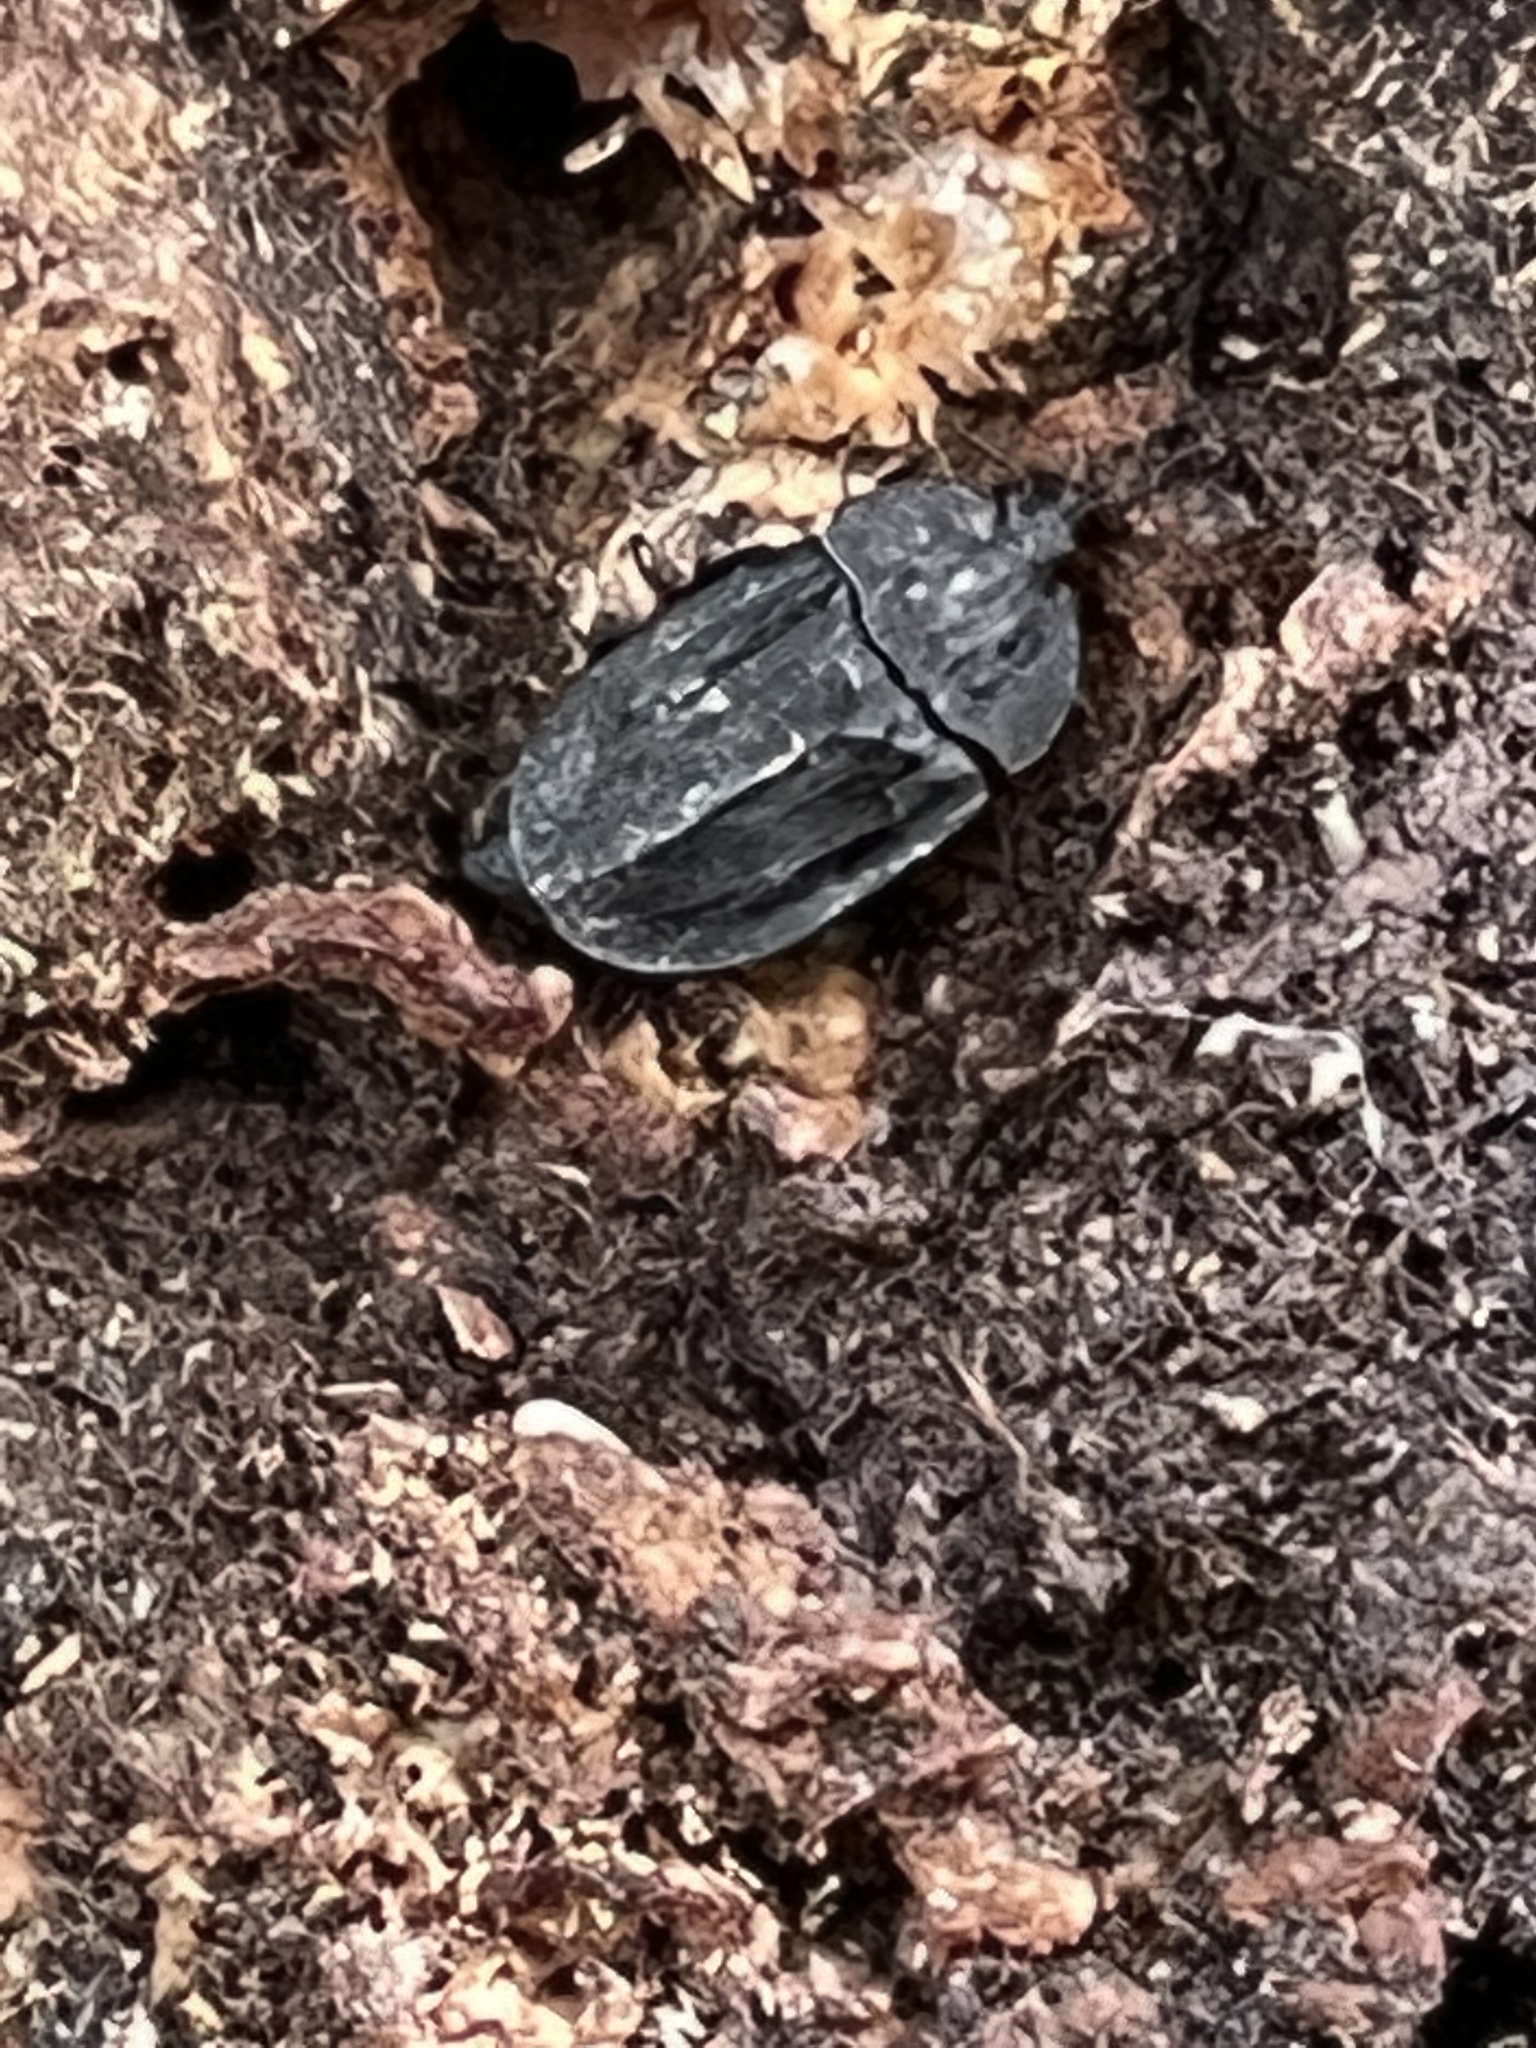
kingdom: Animalia
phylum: Arthropoda
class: Insecta
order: Coleoptera
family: Staphylinidae
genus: Oiceoptoma
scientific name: Oiceoptoma inaequale
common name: Ridged carrion beetle
